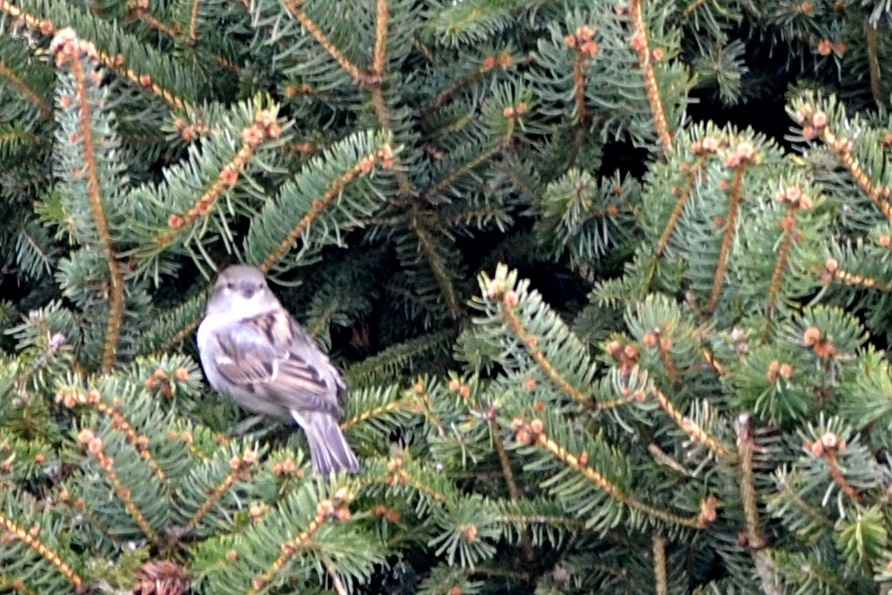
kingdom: Animalia
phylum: Chordata
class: Aves
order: Passeriformes
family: Passeridae
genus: Passer
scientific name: Passer domesticus
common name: House sparrow
